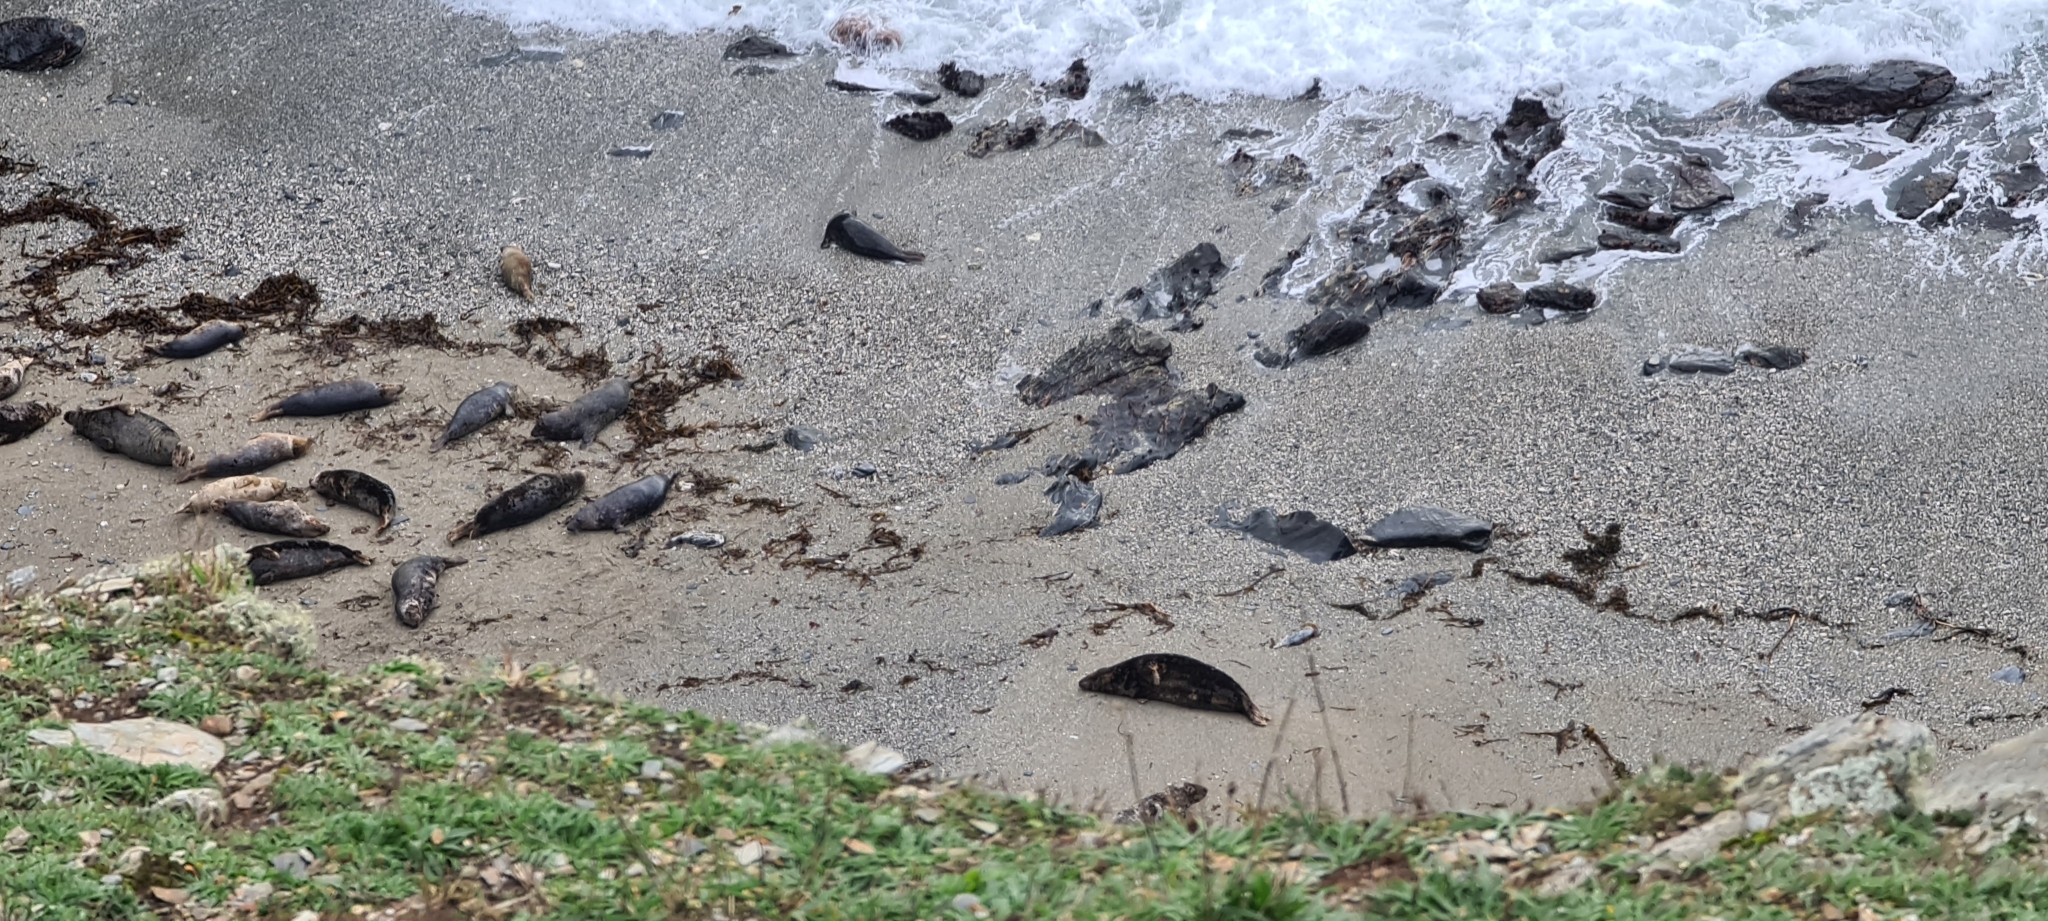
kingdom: Animalia
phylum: Chordata
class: Mammalia
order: Carnivora
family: Phocidae
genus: Halichoerus
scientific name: Halichoerus grypus
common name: Grey seal
